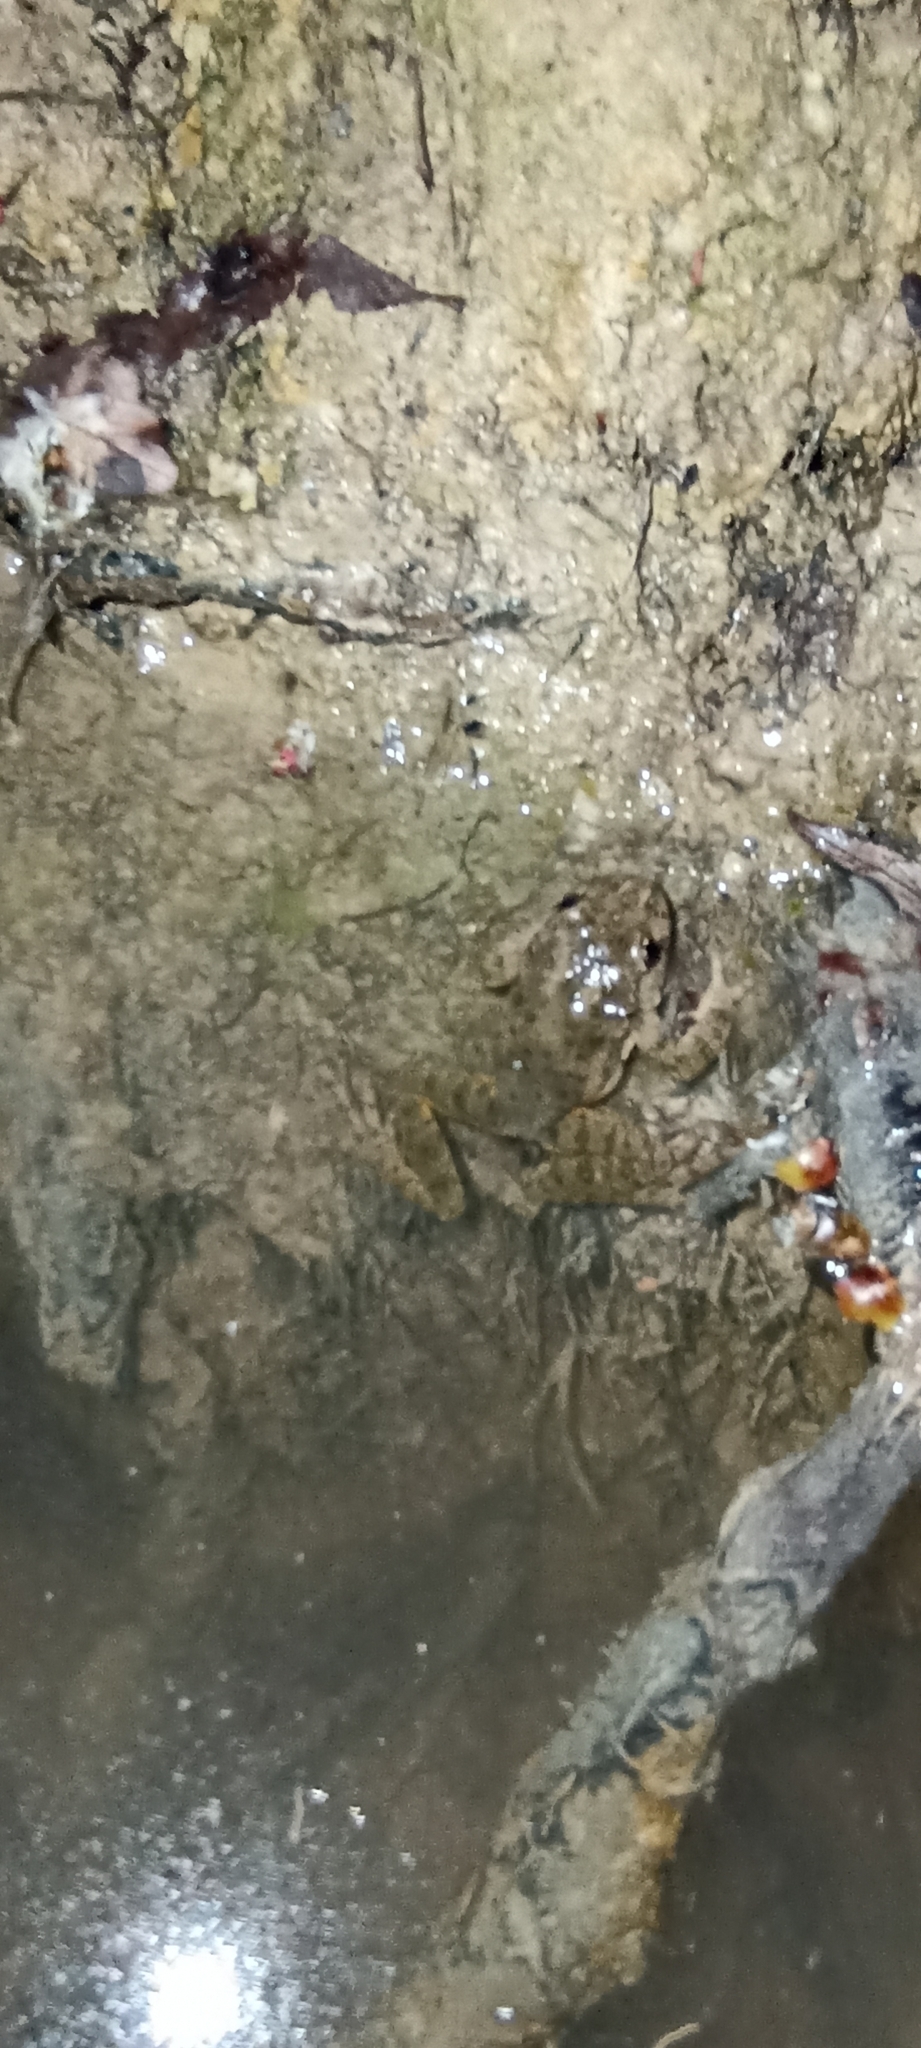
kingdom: Animalia
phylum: Chordata
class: Amphibia
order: Anura
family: Pelodytidae
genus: Pelodytes
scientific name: Pelodytes punctatus
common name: Parsley frog
